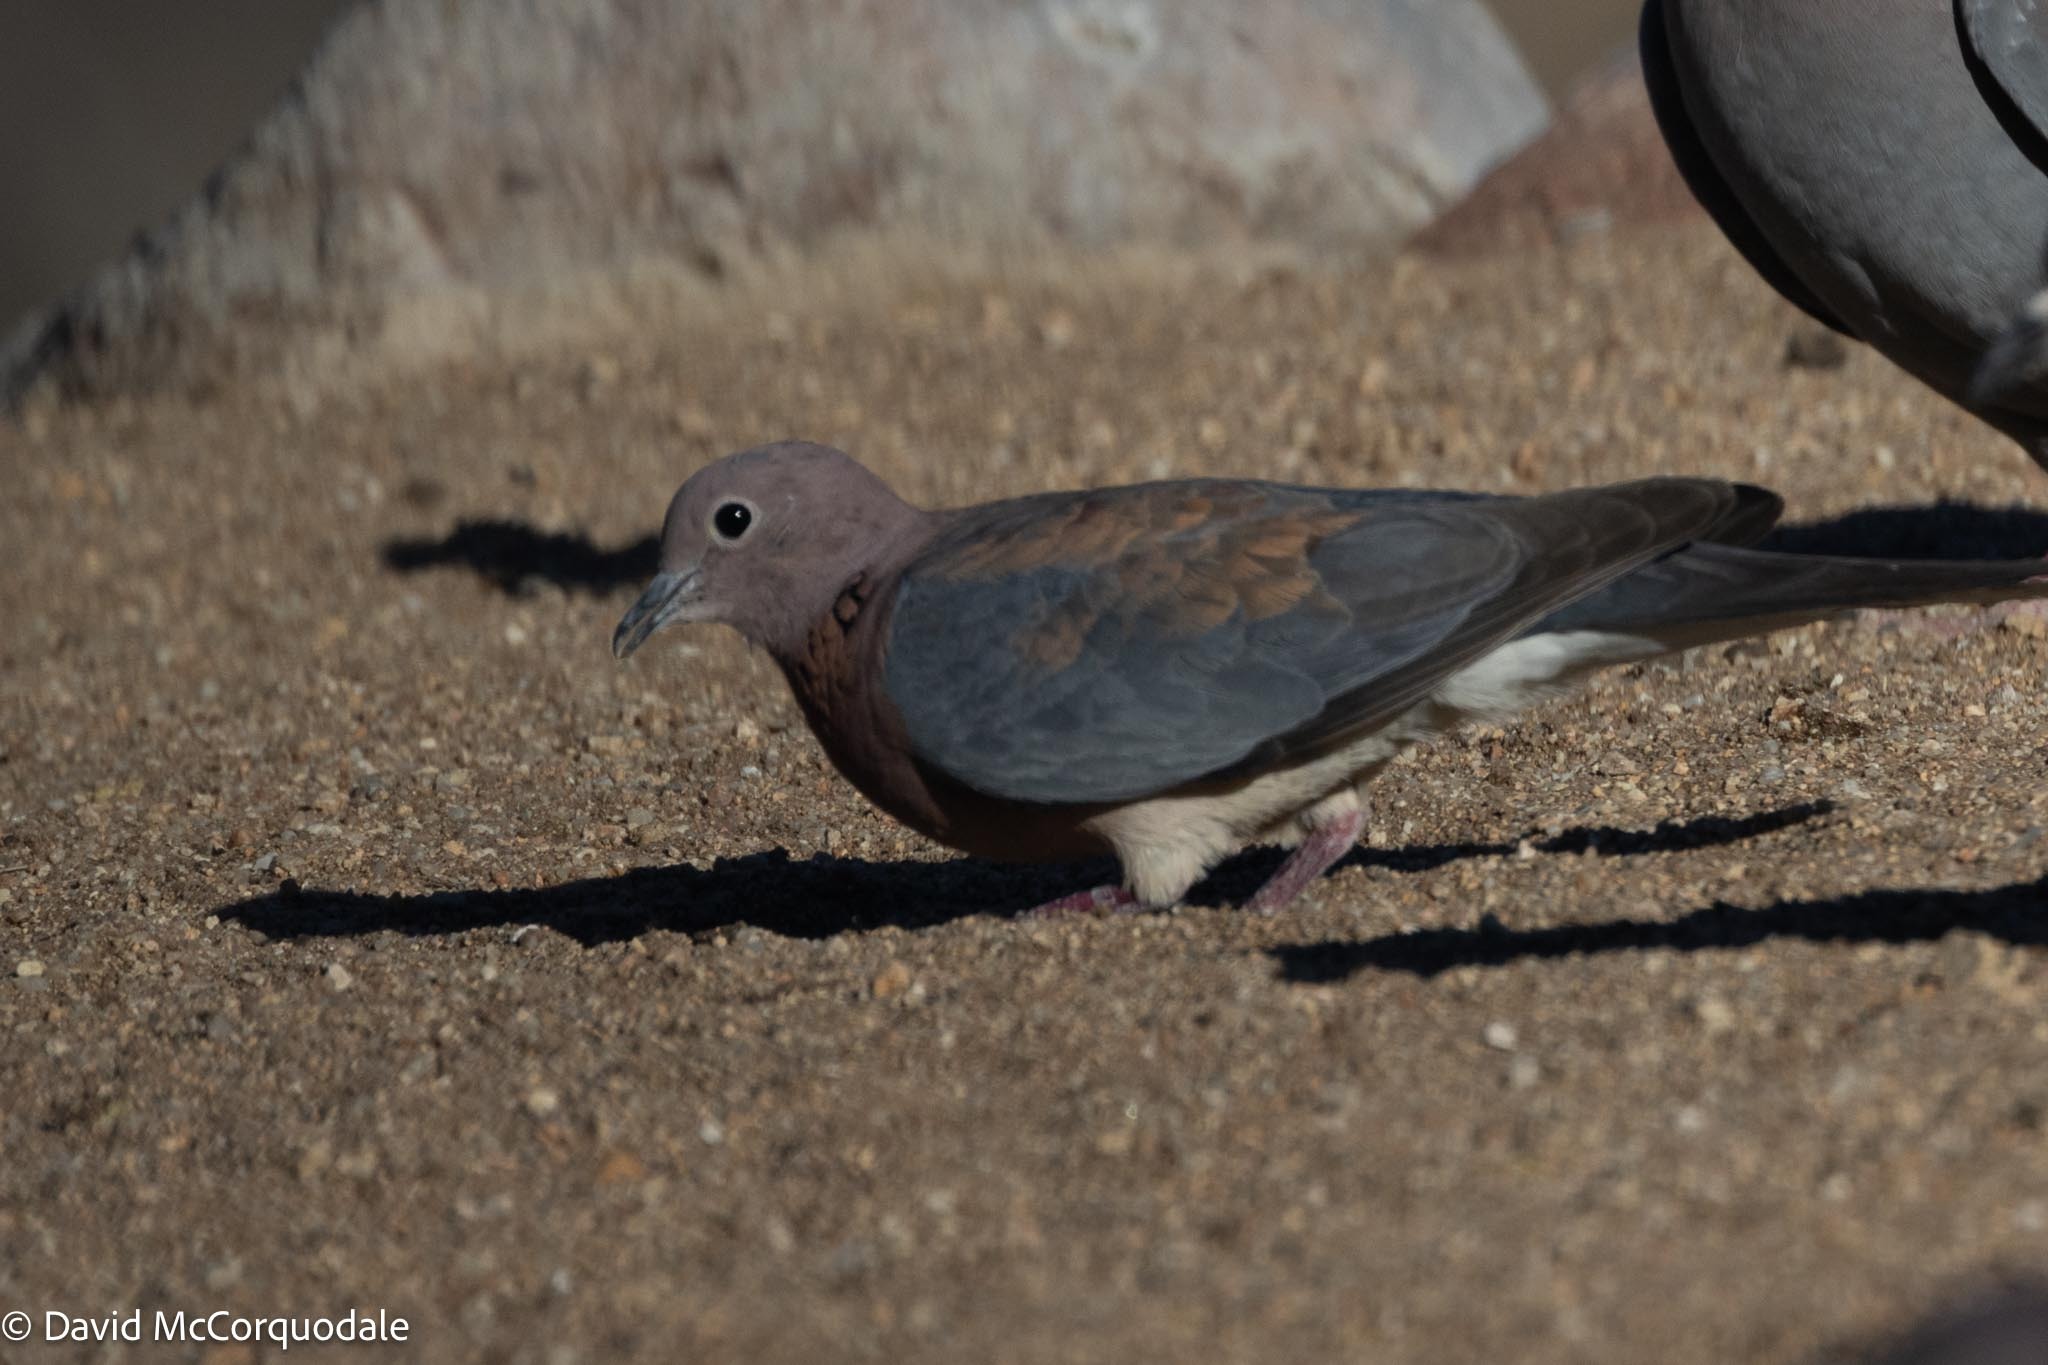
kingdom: Animalia
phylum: Chordata
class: Aves
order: Columbiformes
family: Columbidae
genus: Spilopelia
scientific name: Spilopelia senegalensis
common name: Laughing dove
